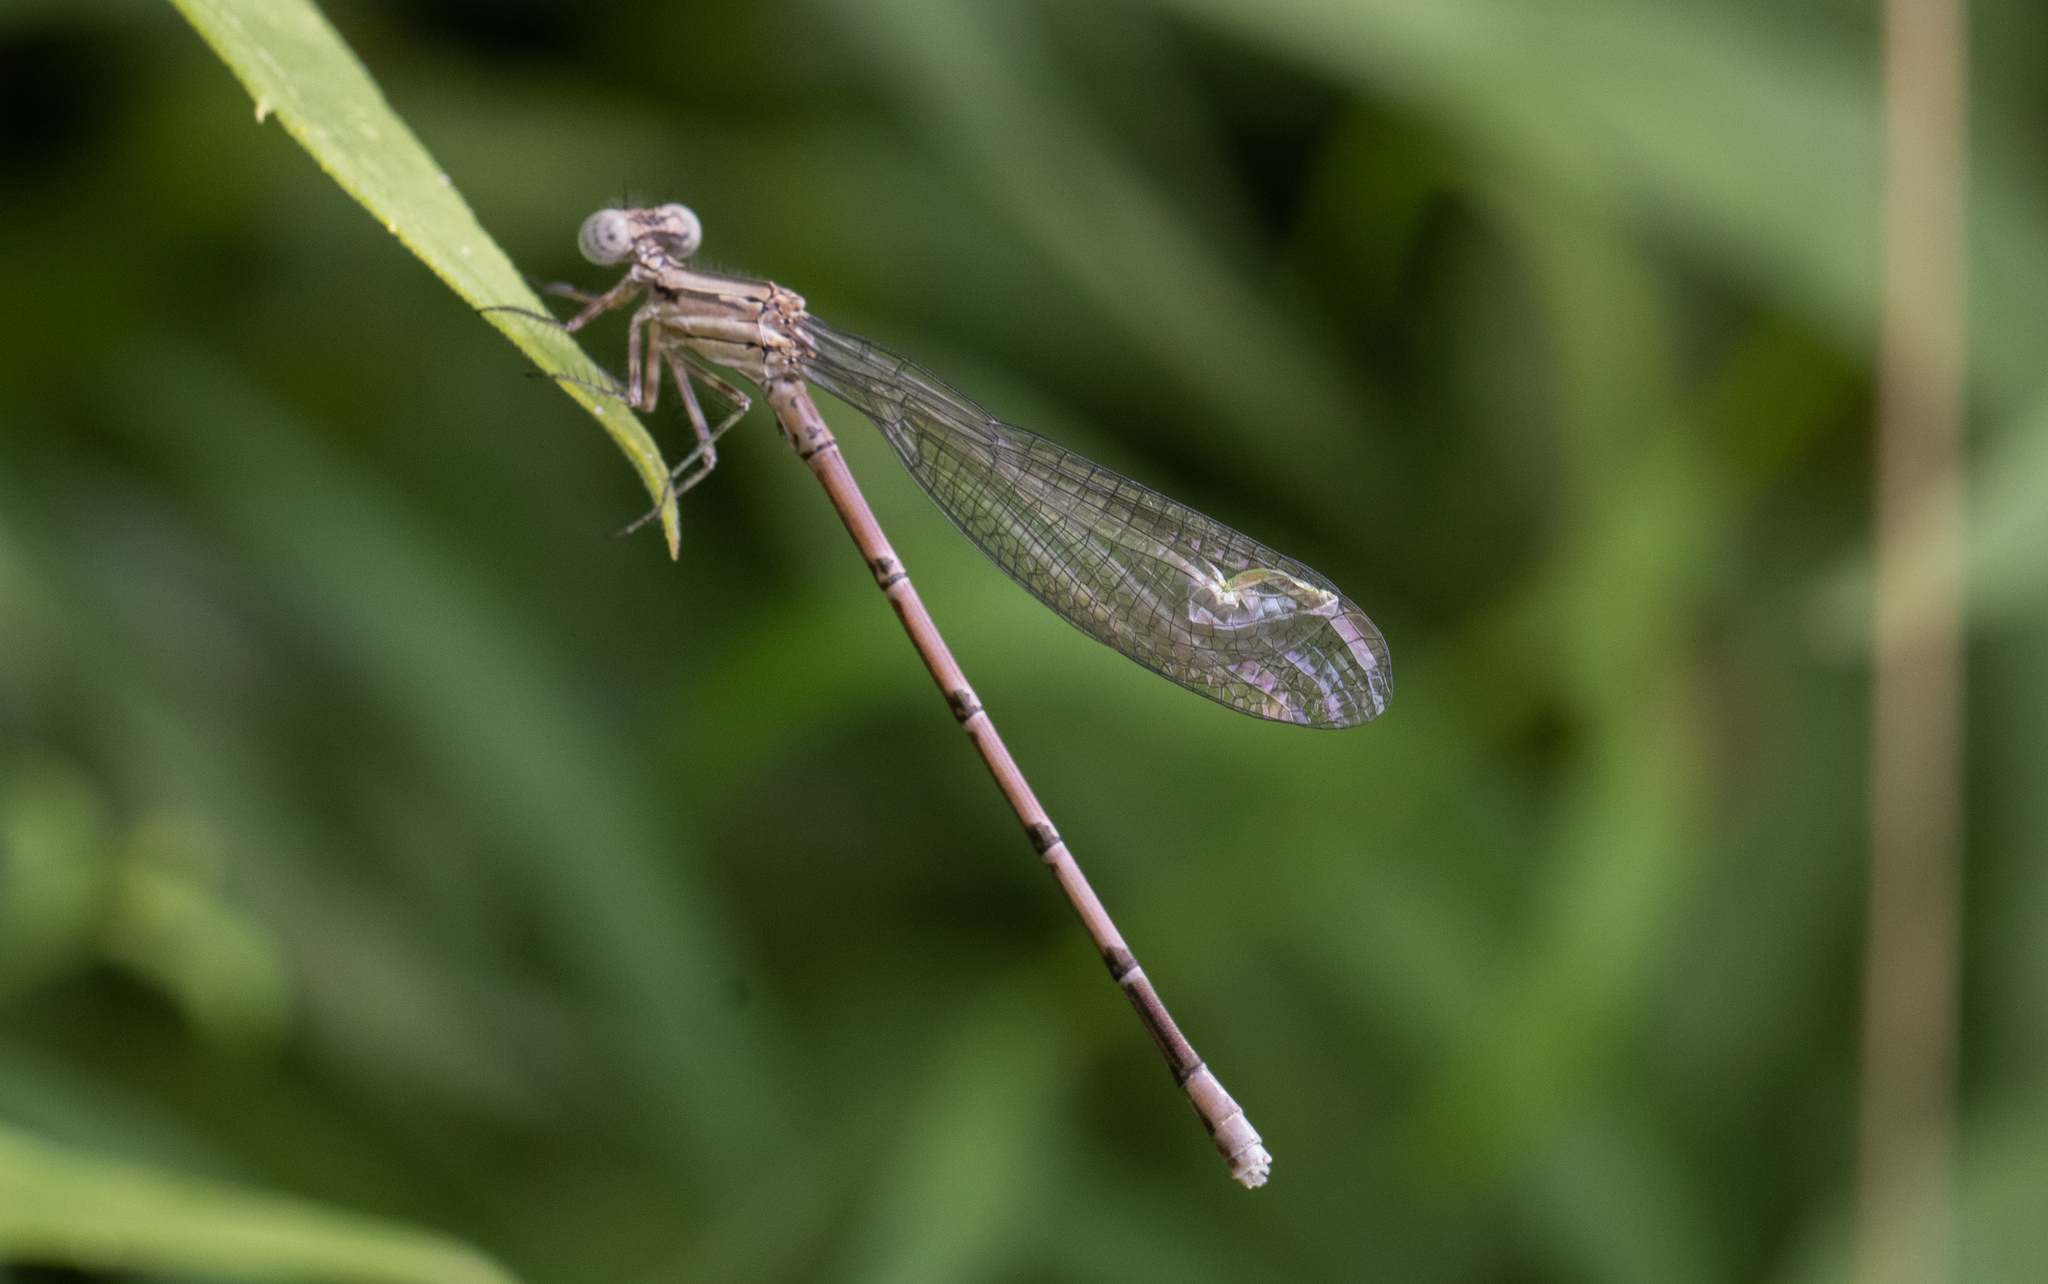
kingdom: Animalia
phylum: Arthropoda
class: Insecta
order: Odonata
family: Coenagrionidae
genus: Argia
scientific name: Argia fumipennis
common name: Variable dancer
